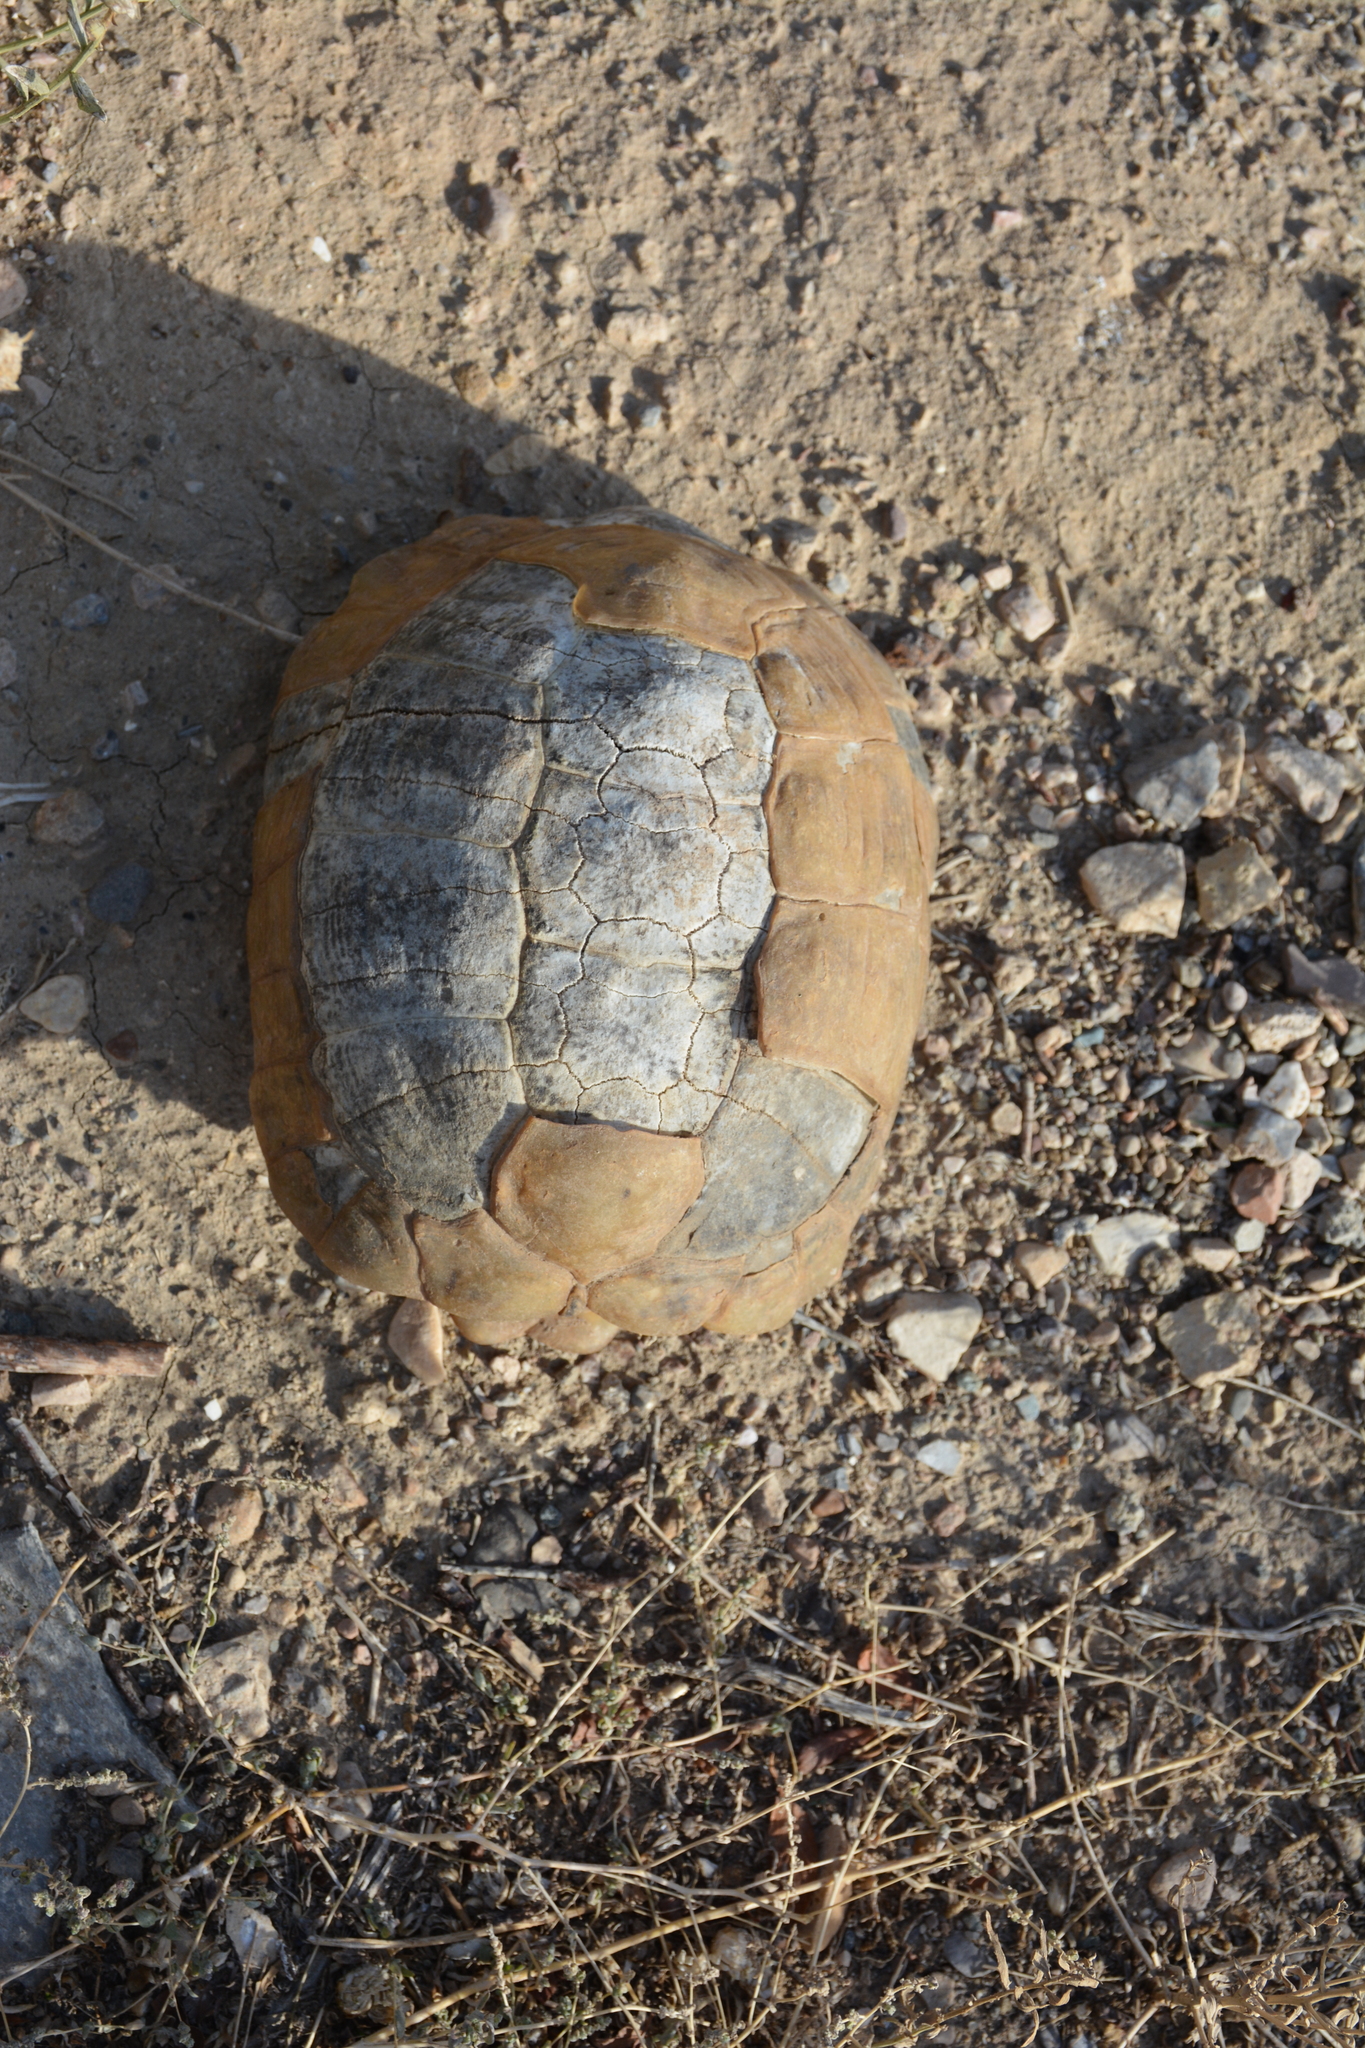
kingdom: Animalia
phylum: Chordata
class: Testudines
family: Testudinidae
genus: Testudo
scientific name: Testudo horsfieldii
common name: Central asia tortoise
